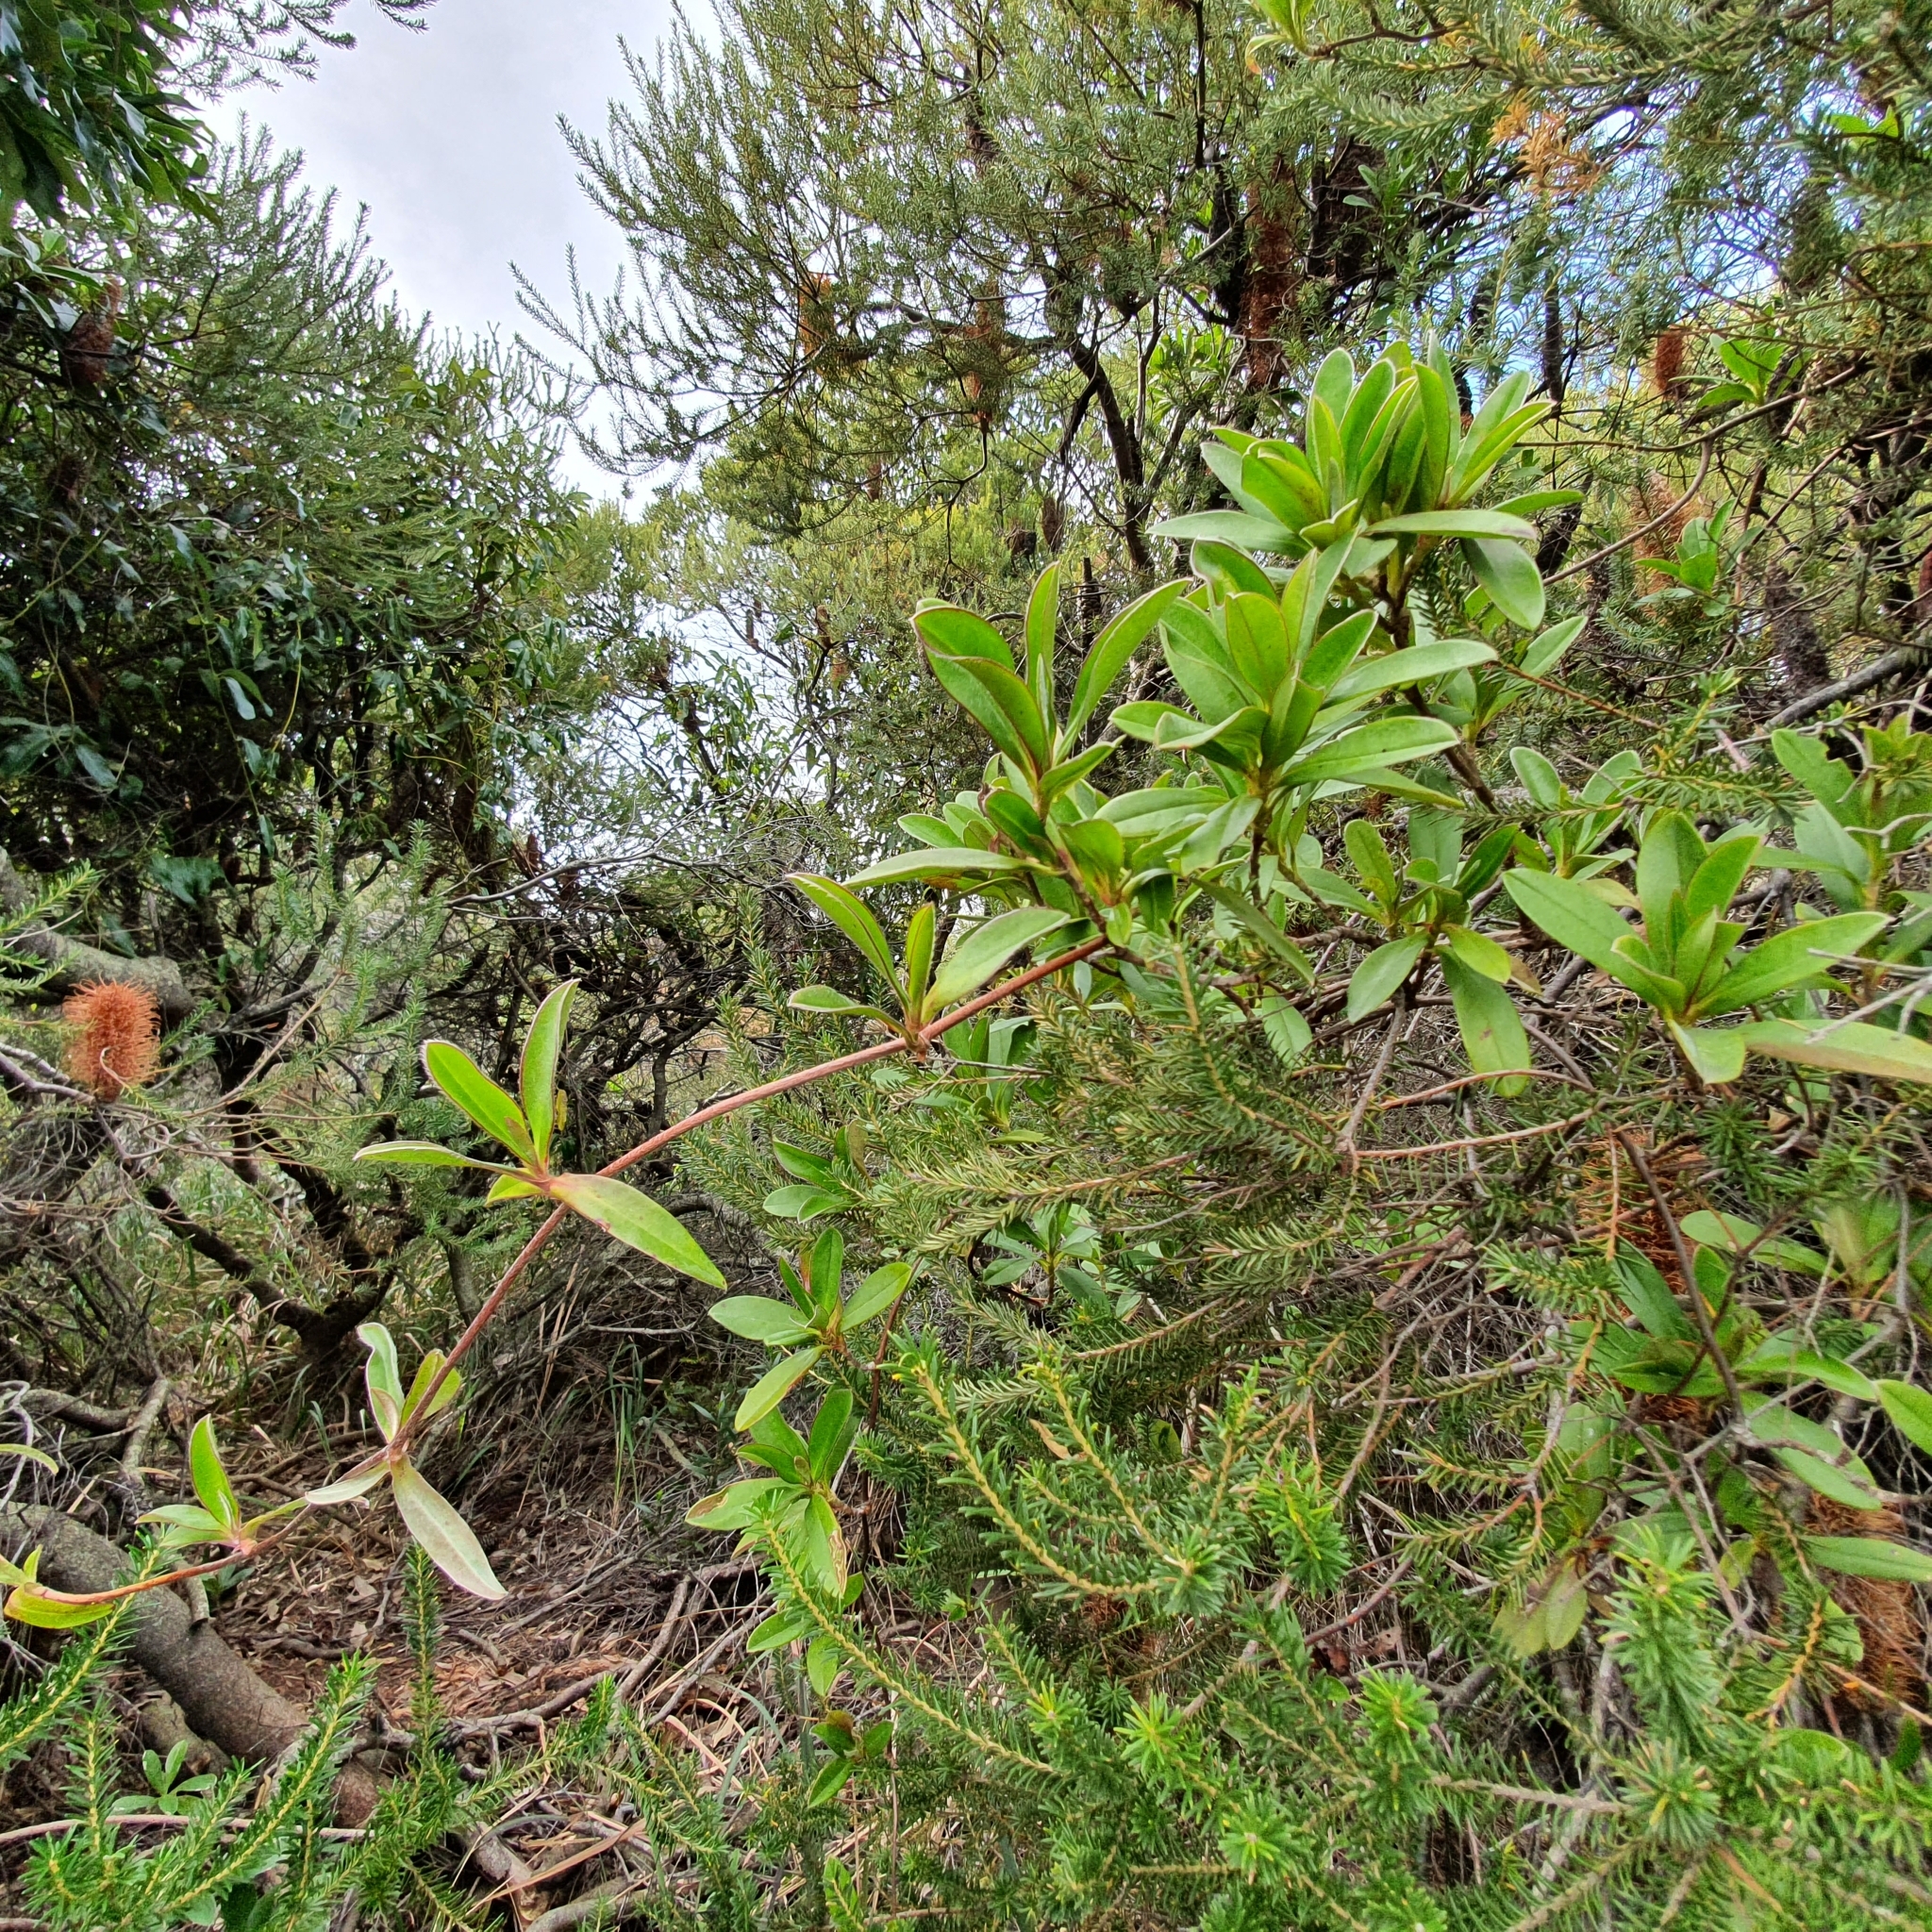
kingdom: Plantae
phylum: Tracheophyta
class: Magnoliopsida
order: Dilleniales
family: Dilleniaceae
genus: Hibbertia
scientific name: Hibbertia scandens
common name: Climbing guinea-flower
